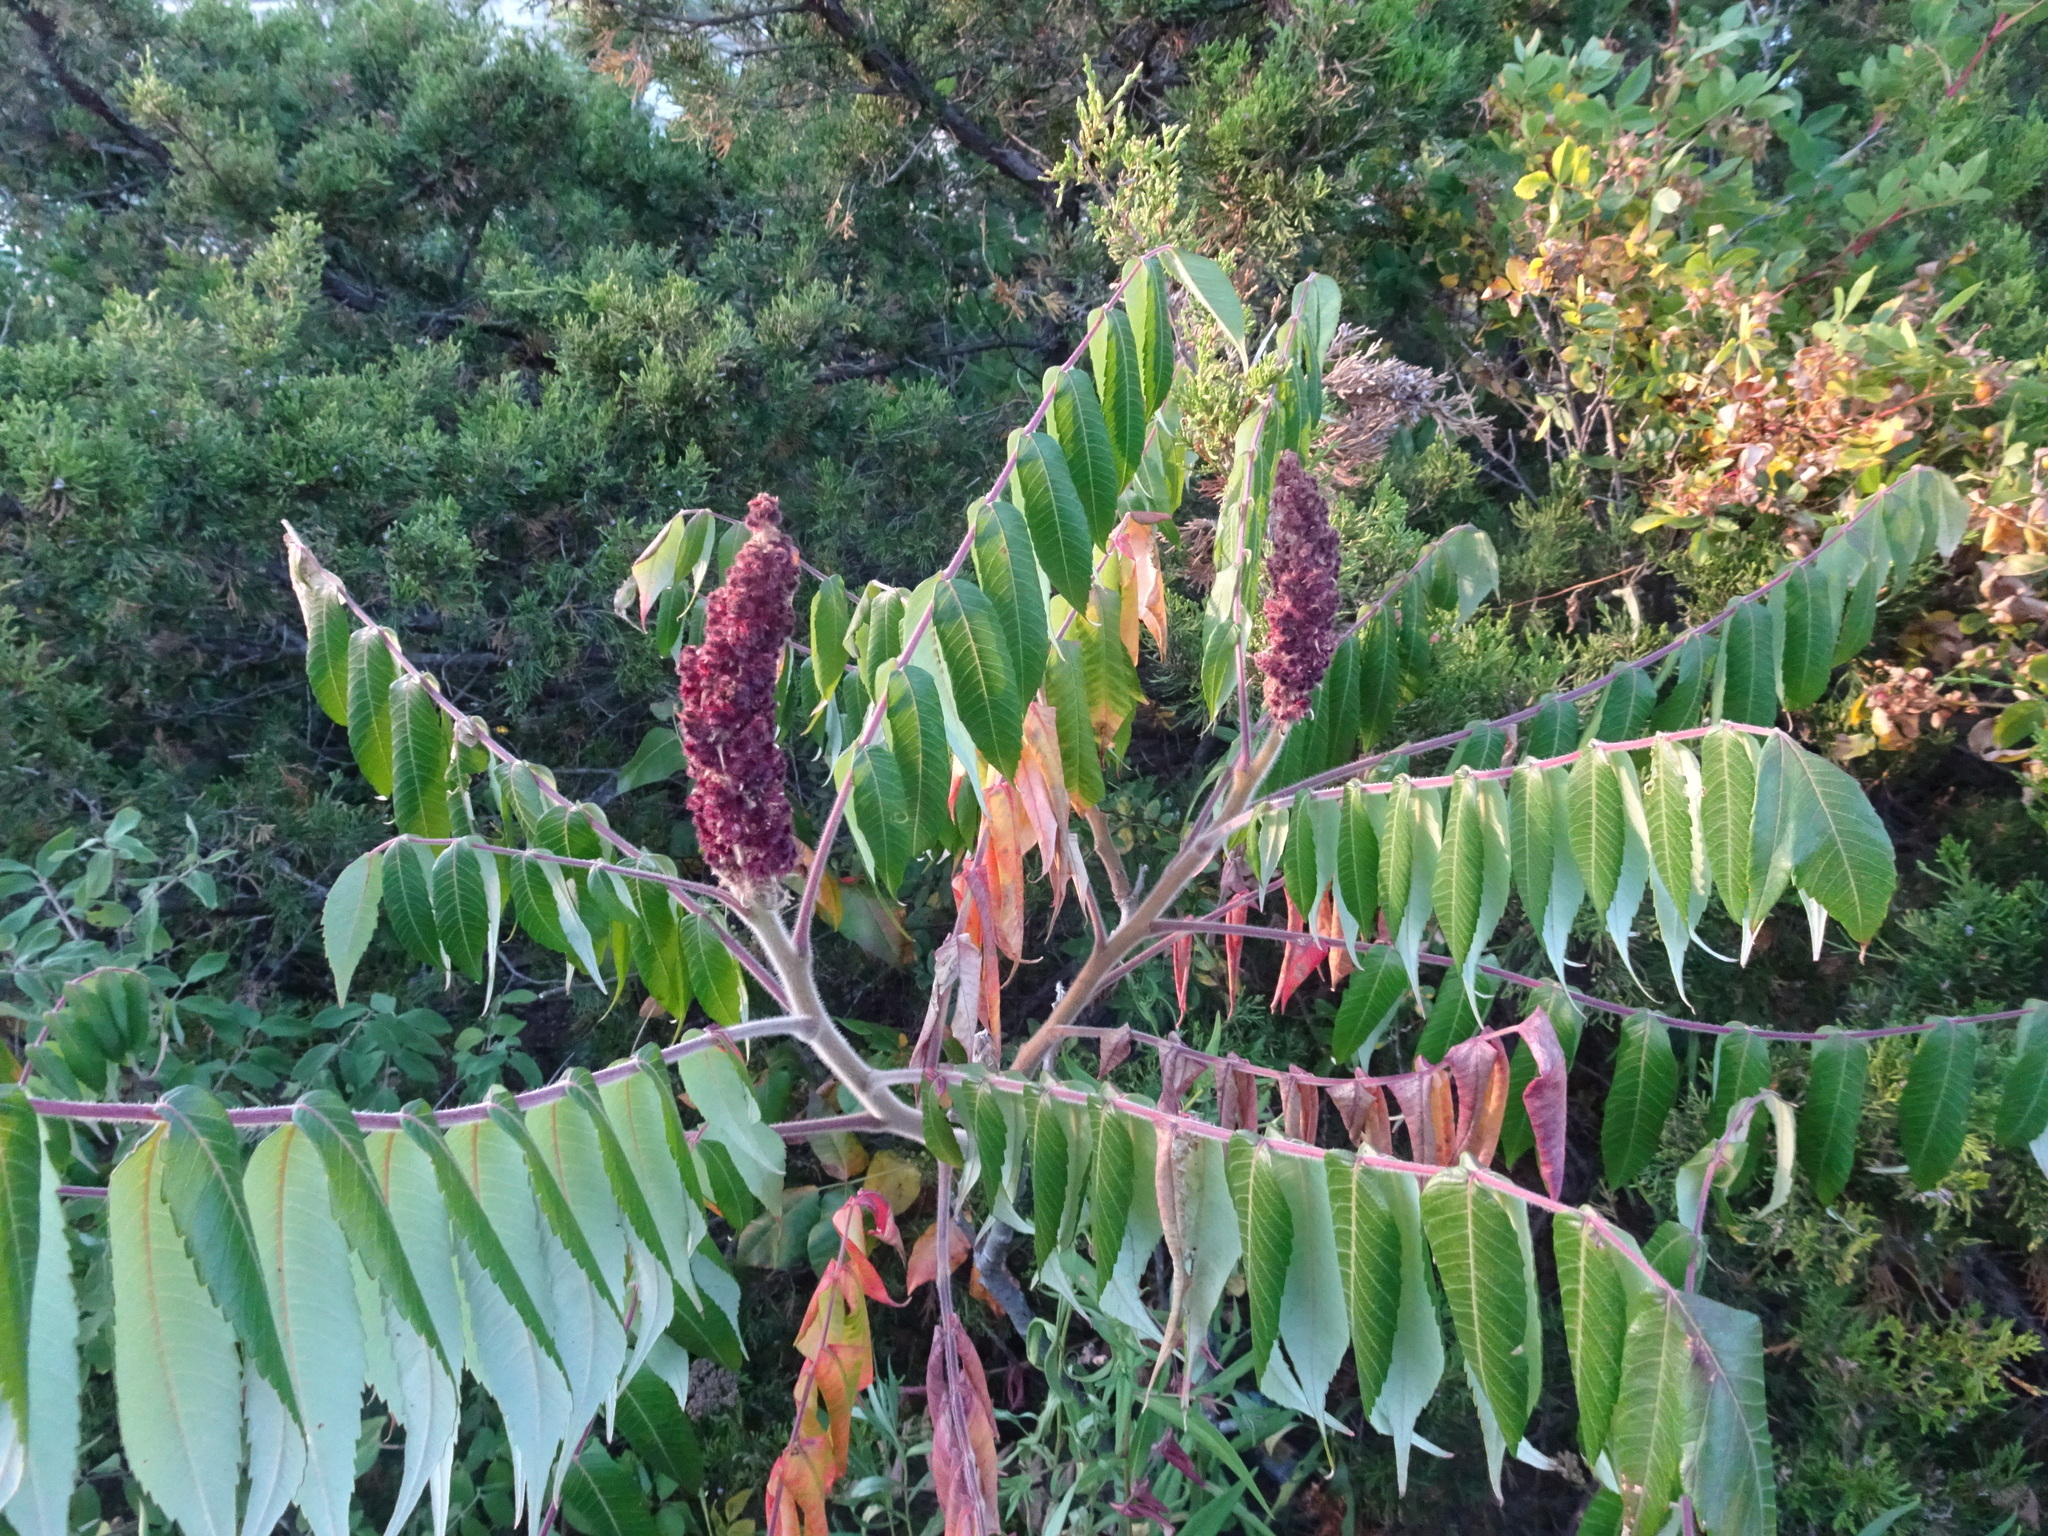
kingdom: Plantae
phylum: Tracheophyta
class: Magnoliopsida
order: Sapindales
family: Anacardiaceae
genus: Rhus
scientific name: Rhus typhina
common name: Staghorn sumac
